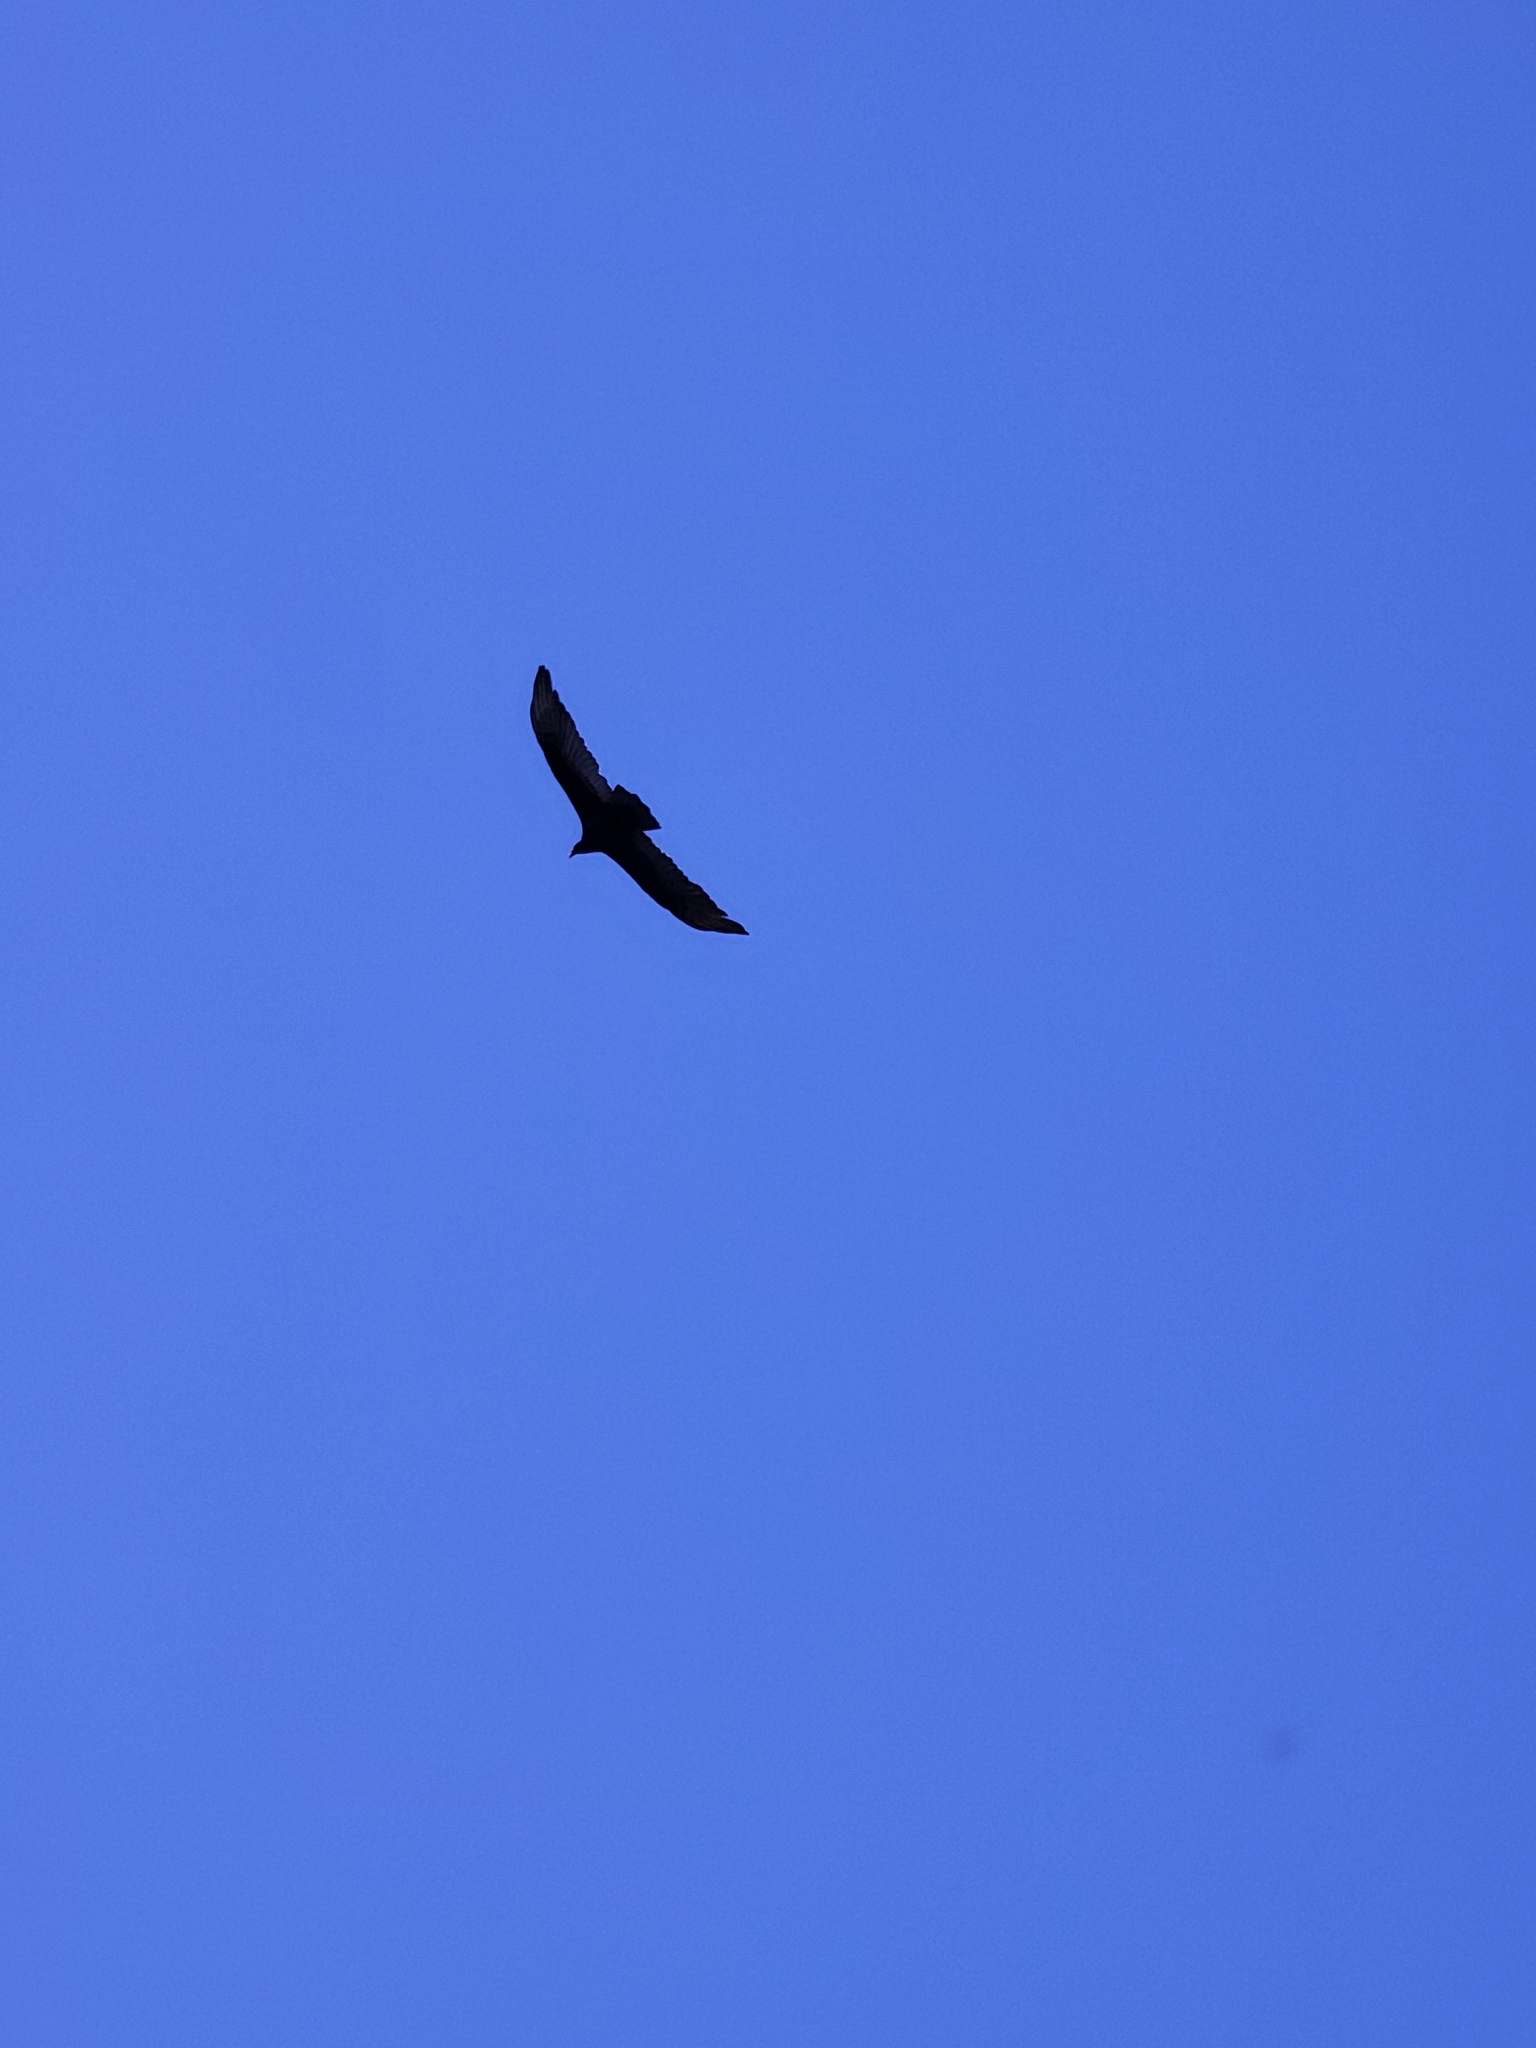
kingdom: Animalia
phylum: Chordata
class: Aves
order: Accipitriformes
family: Cathartidae
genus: Cathartes
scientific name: Cathartes aura
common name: Turkey vulture
